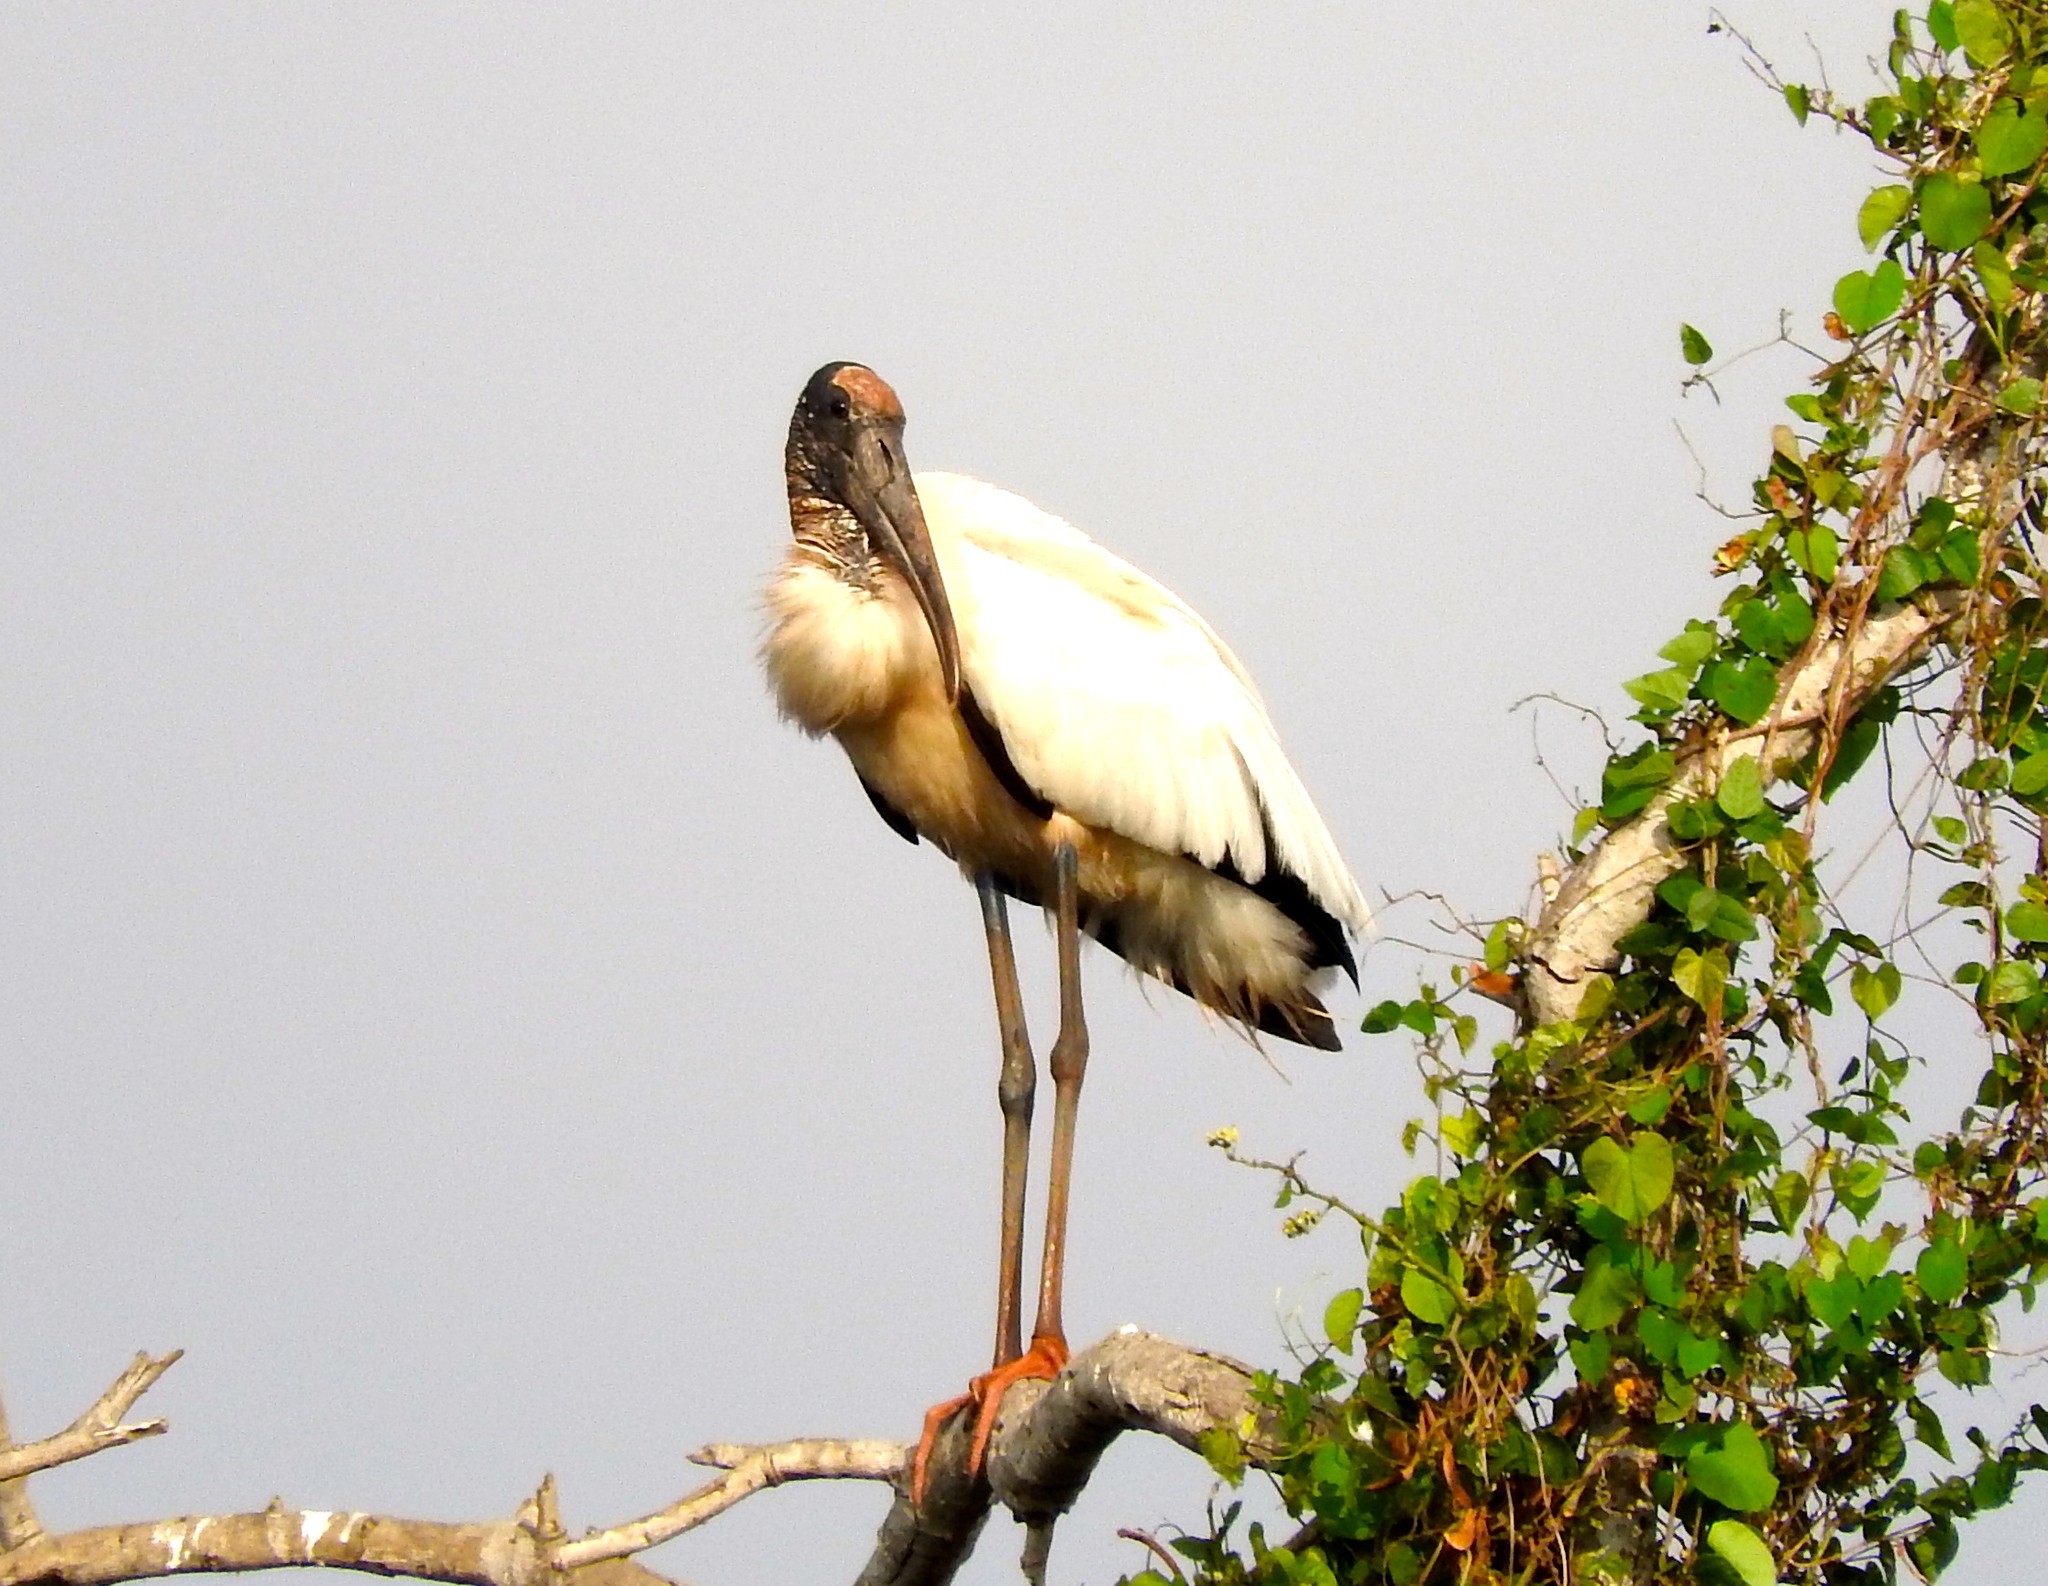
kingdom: Animalia
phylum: Chordata
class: Aves
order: Ciconiiformes
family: Ciconiidae
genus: Mycteria
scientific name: Mycteria americana
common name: Wood stork
